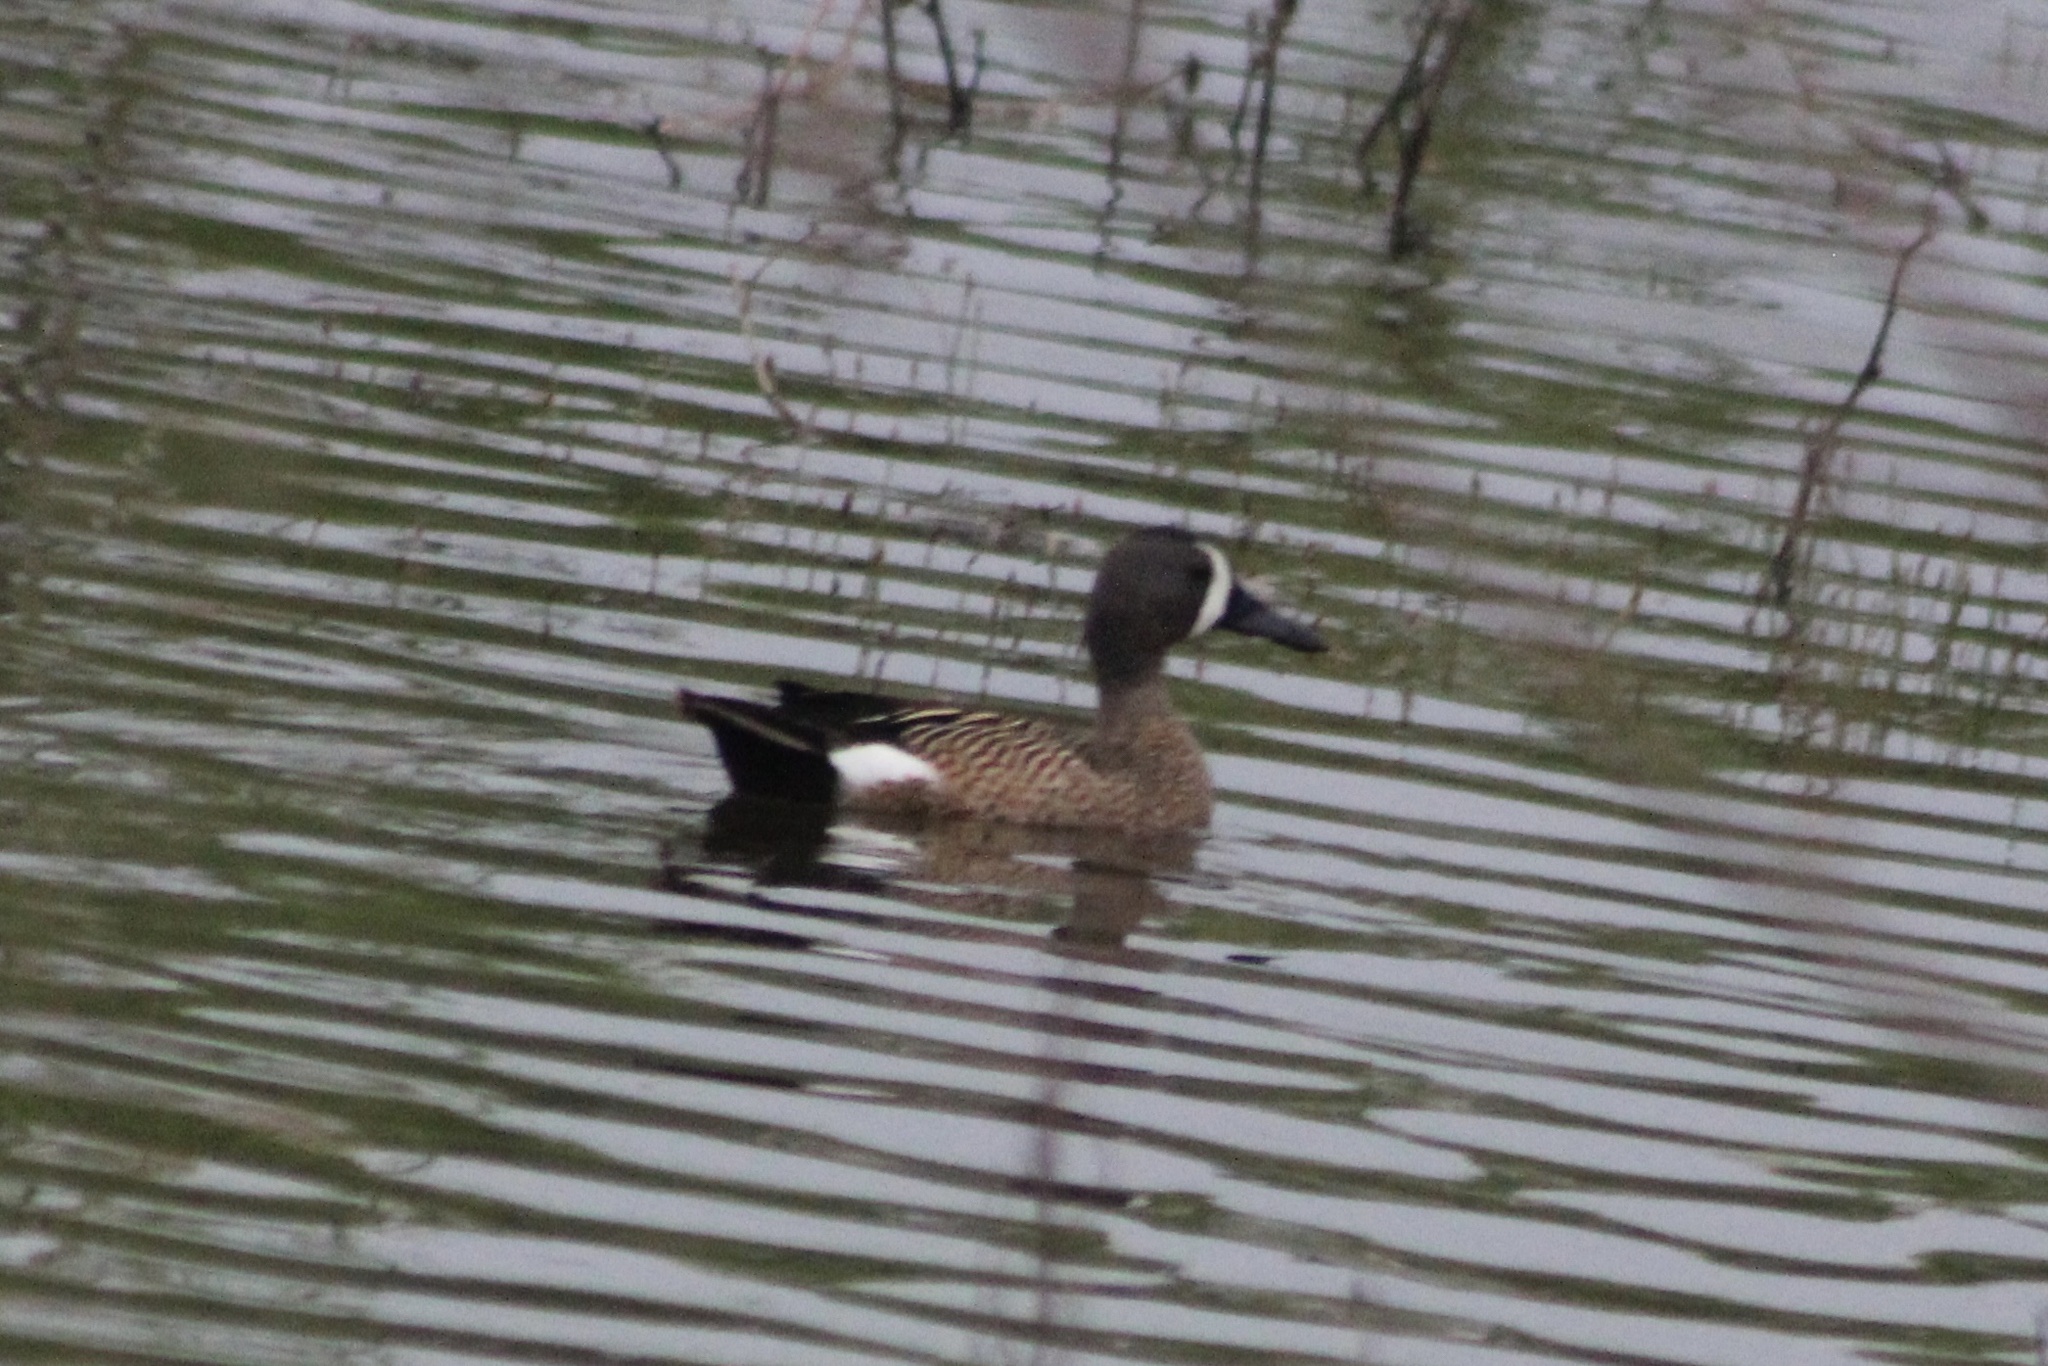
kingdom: Animalia
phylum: Chordata
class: Aves
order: Anseriformes
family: Anatidae
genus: Spatula
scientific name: Spatula discors
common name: Blue-winged teal
